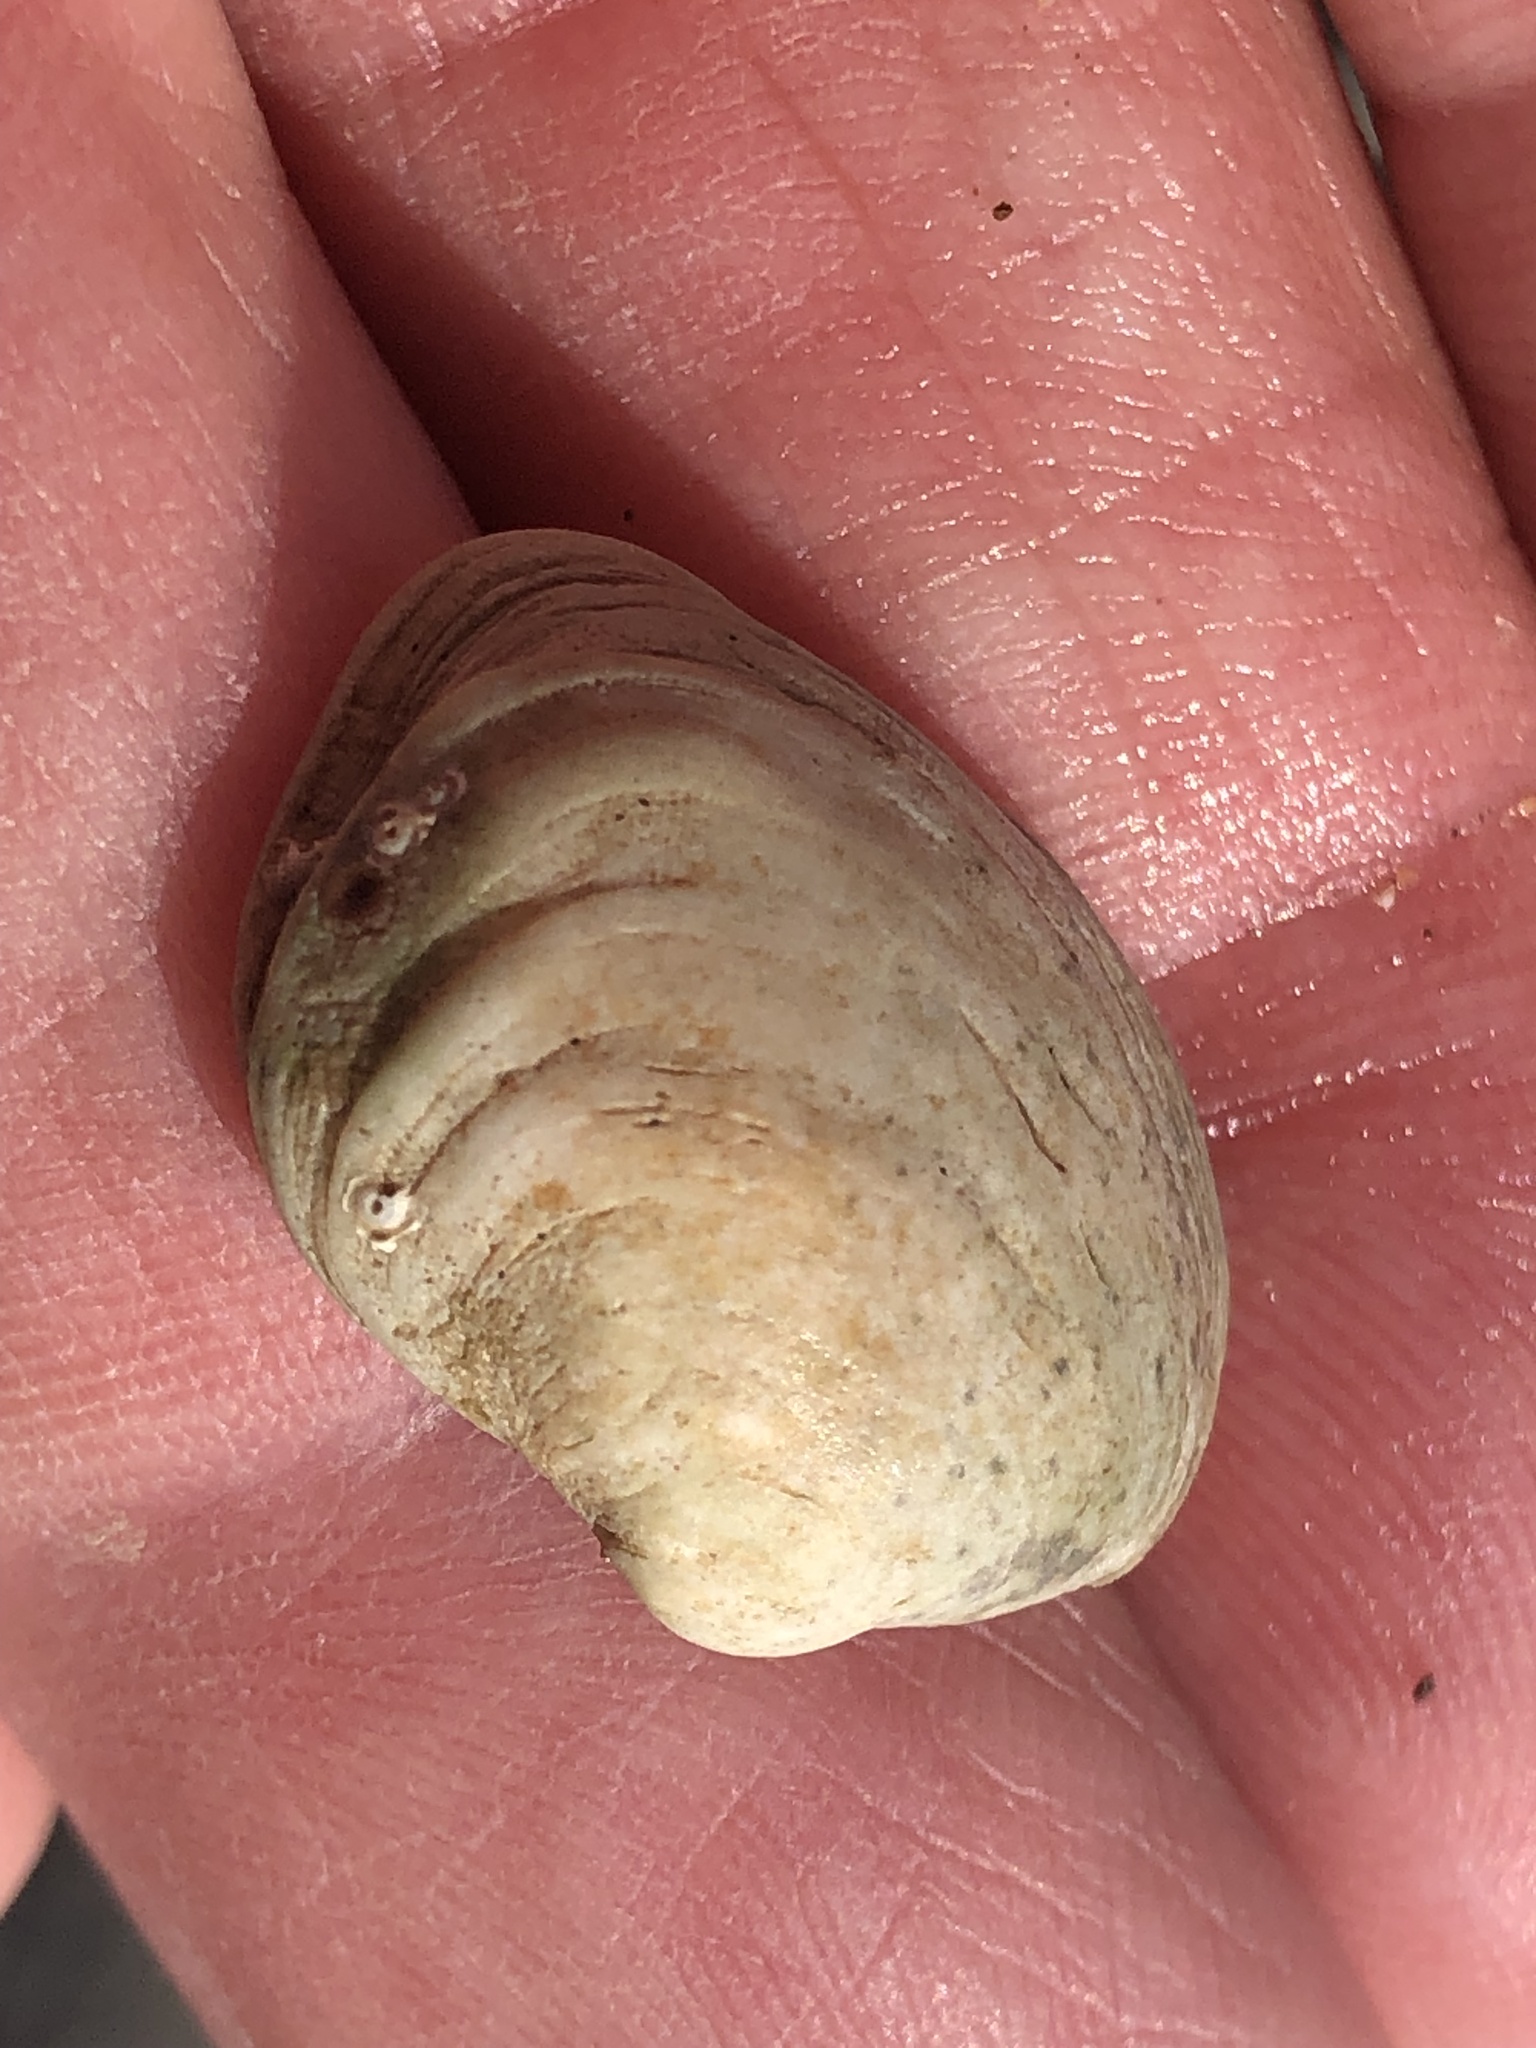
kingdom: Animalia
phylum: Mollusca
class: Bivalvia
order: Venerida
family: Veneridae
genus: Petricola
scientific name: Petricola carditoides
